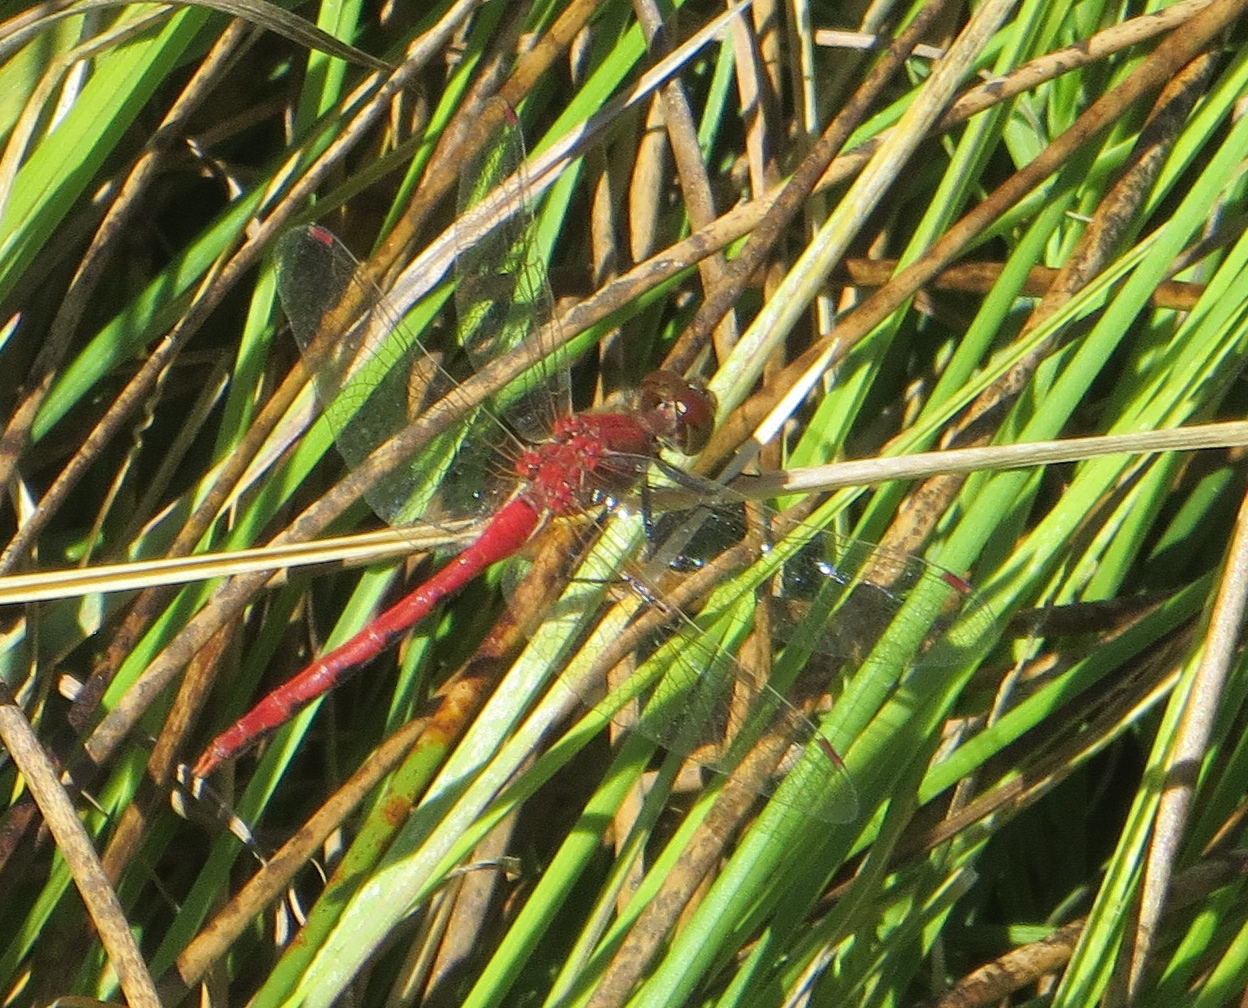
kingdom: Animalia
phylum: Arthropoda
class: Insecta
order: Odonata
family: Libellulidae
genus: Sympetrum
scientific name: Sympetrum obtrusum
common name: White-faced meadowhawk
